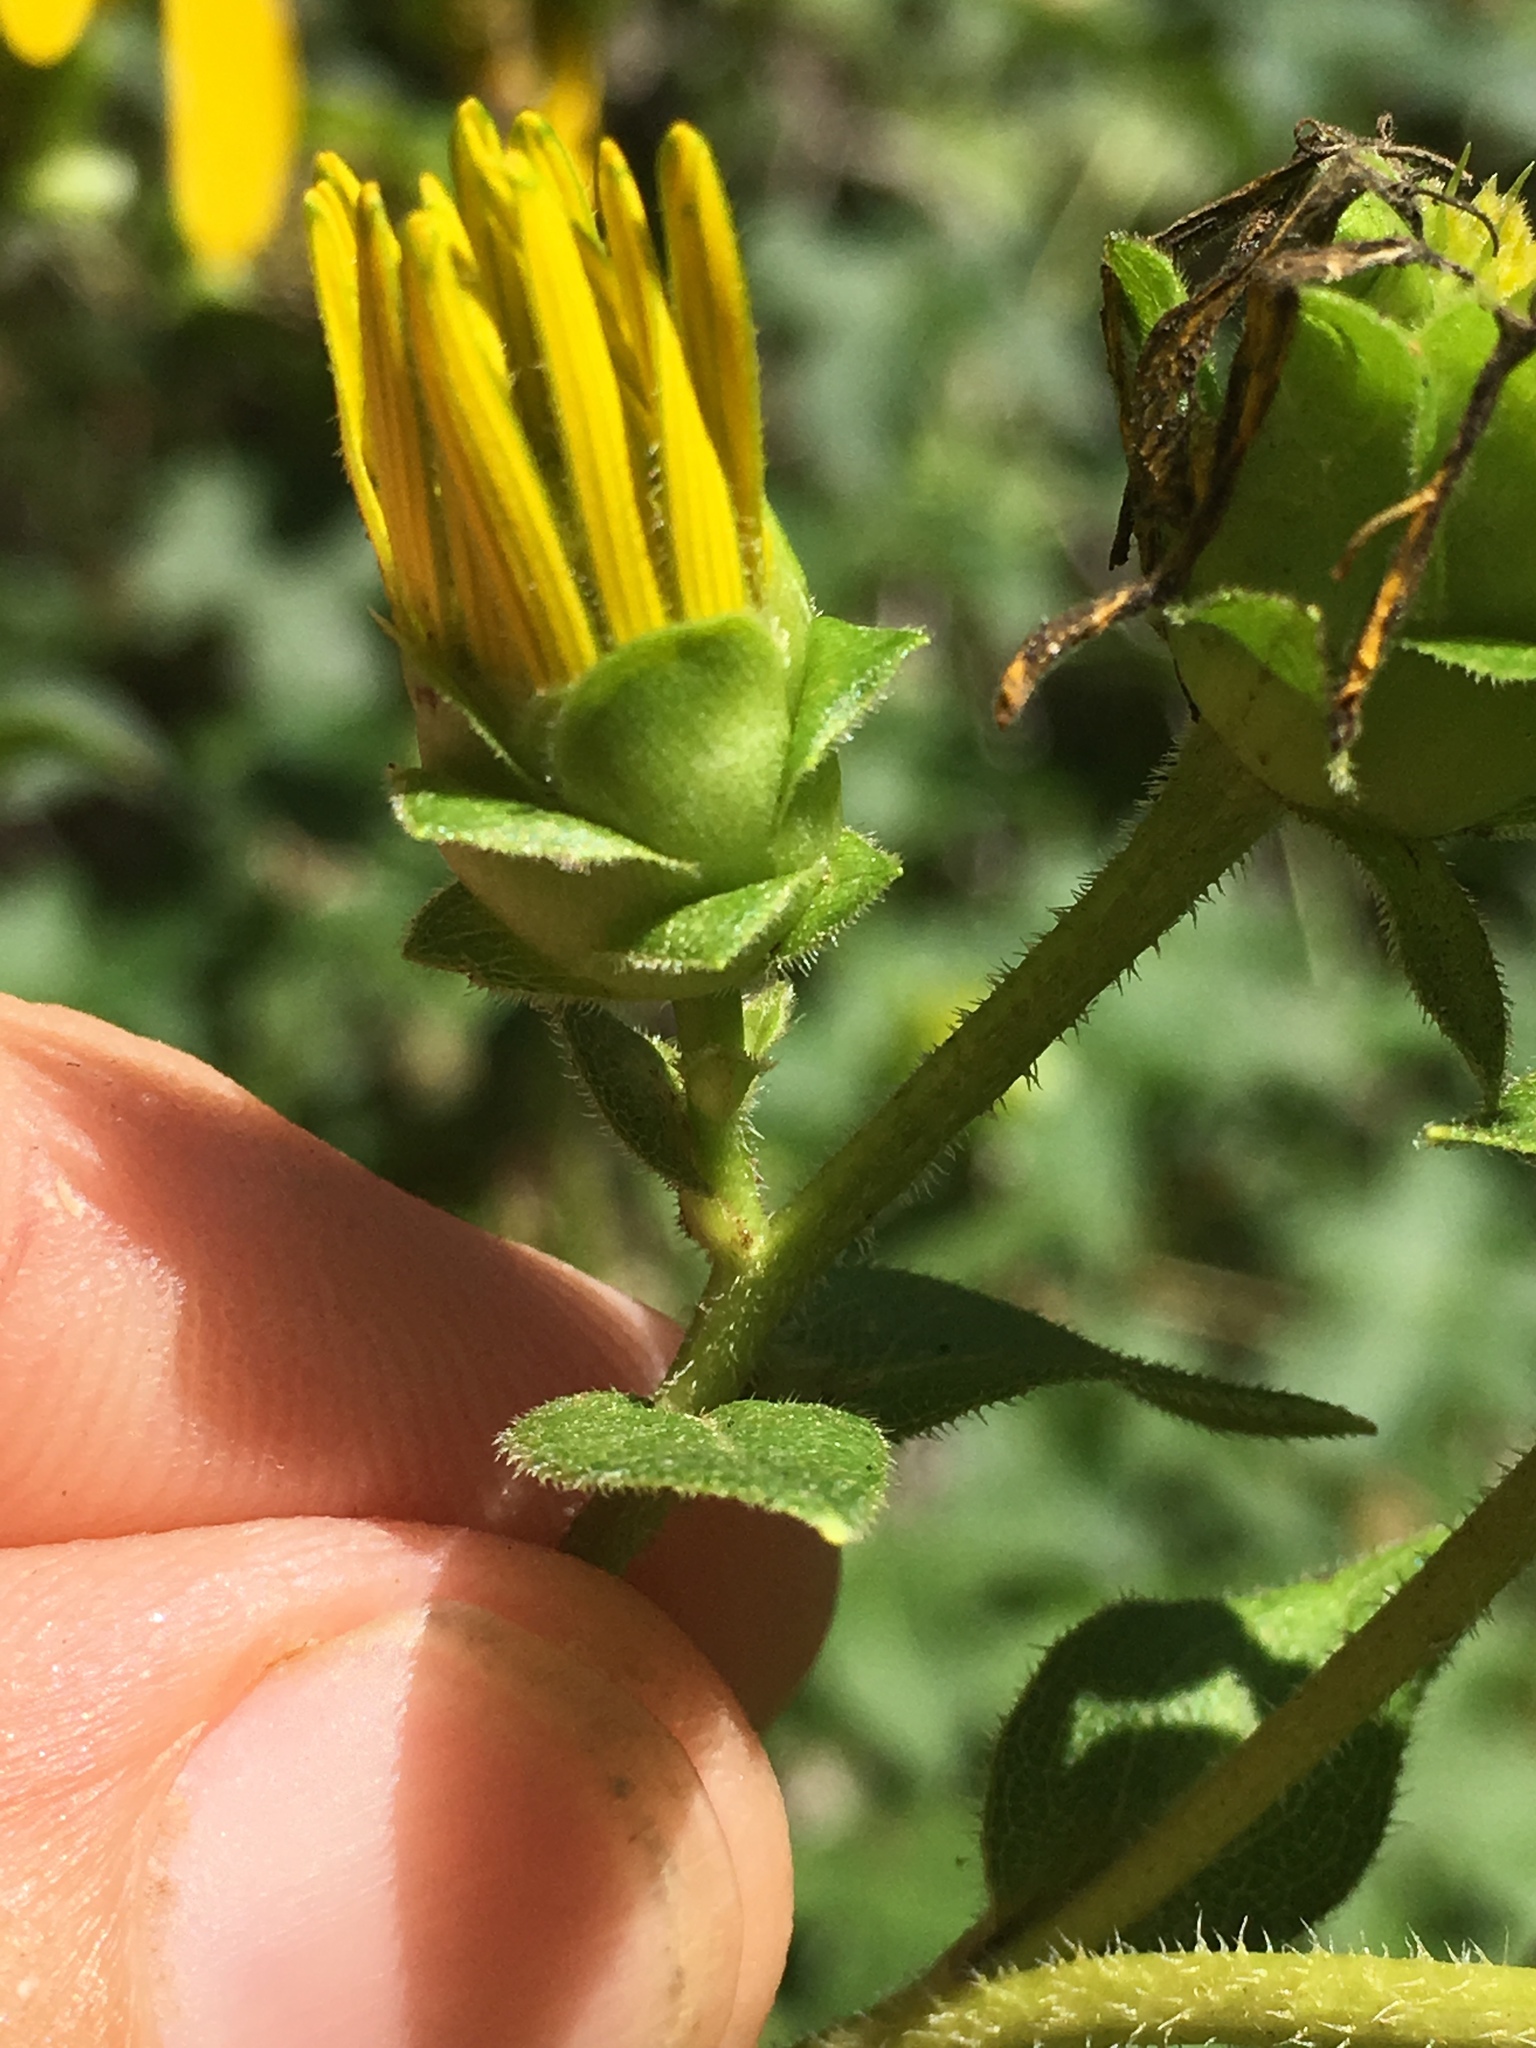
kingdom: Plantae
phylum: Tracheophyta
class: Magnoliopsida
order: Asterales
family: Asteraceae
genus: Silphium
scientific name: Silphium asteriscus
